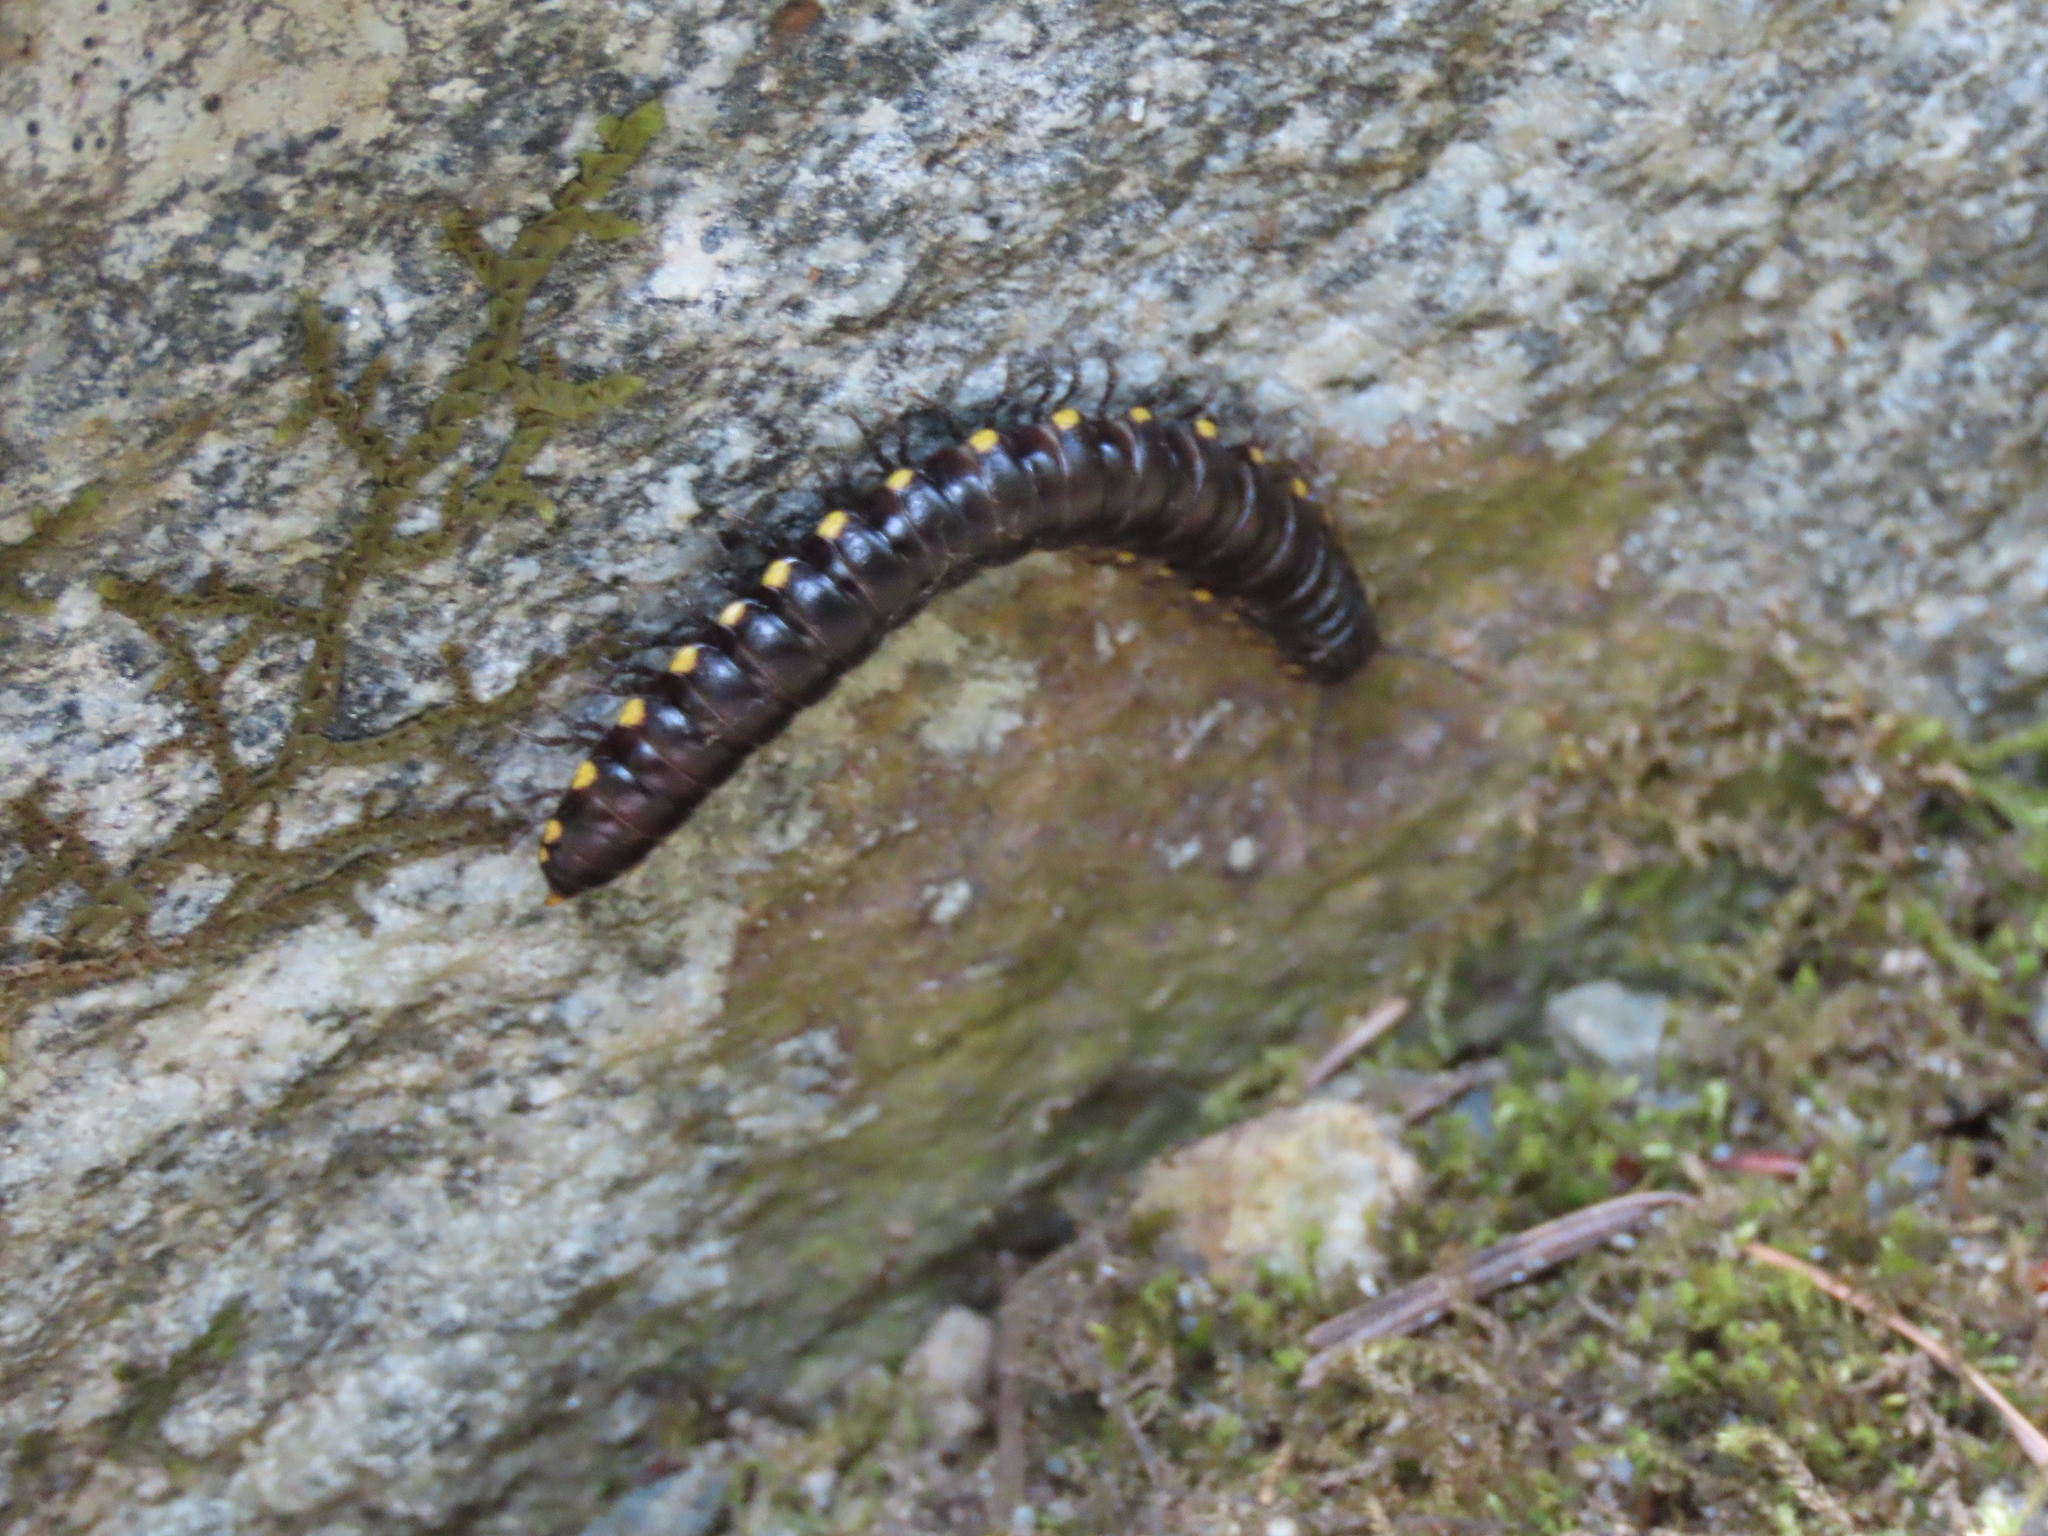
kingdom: Animalia
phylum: Arthropoda
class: Diplopoda
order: Polydesmida
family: Xystodesmidae
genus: Harpaphe
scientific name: Harpaphe haydeniana
